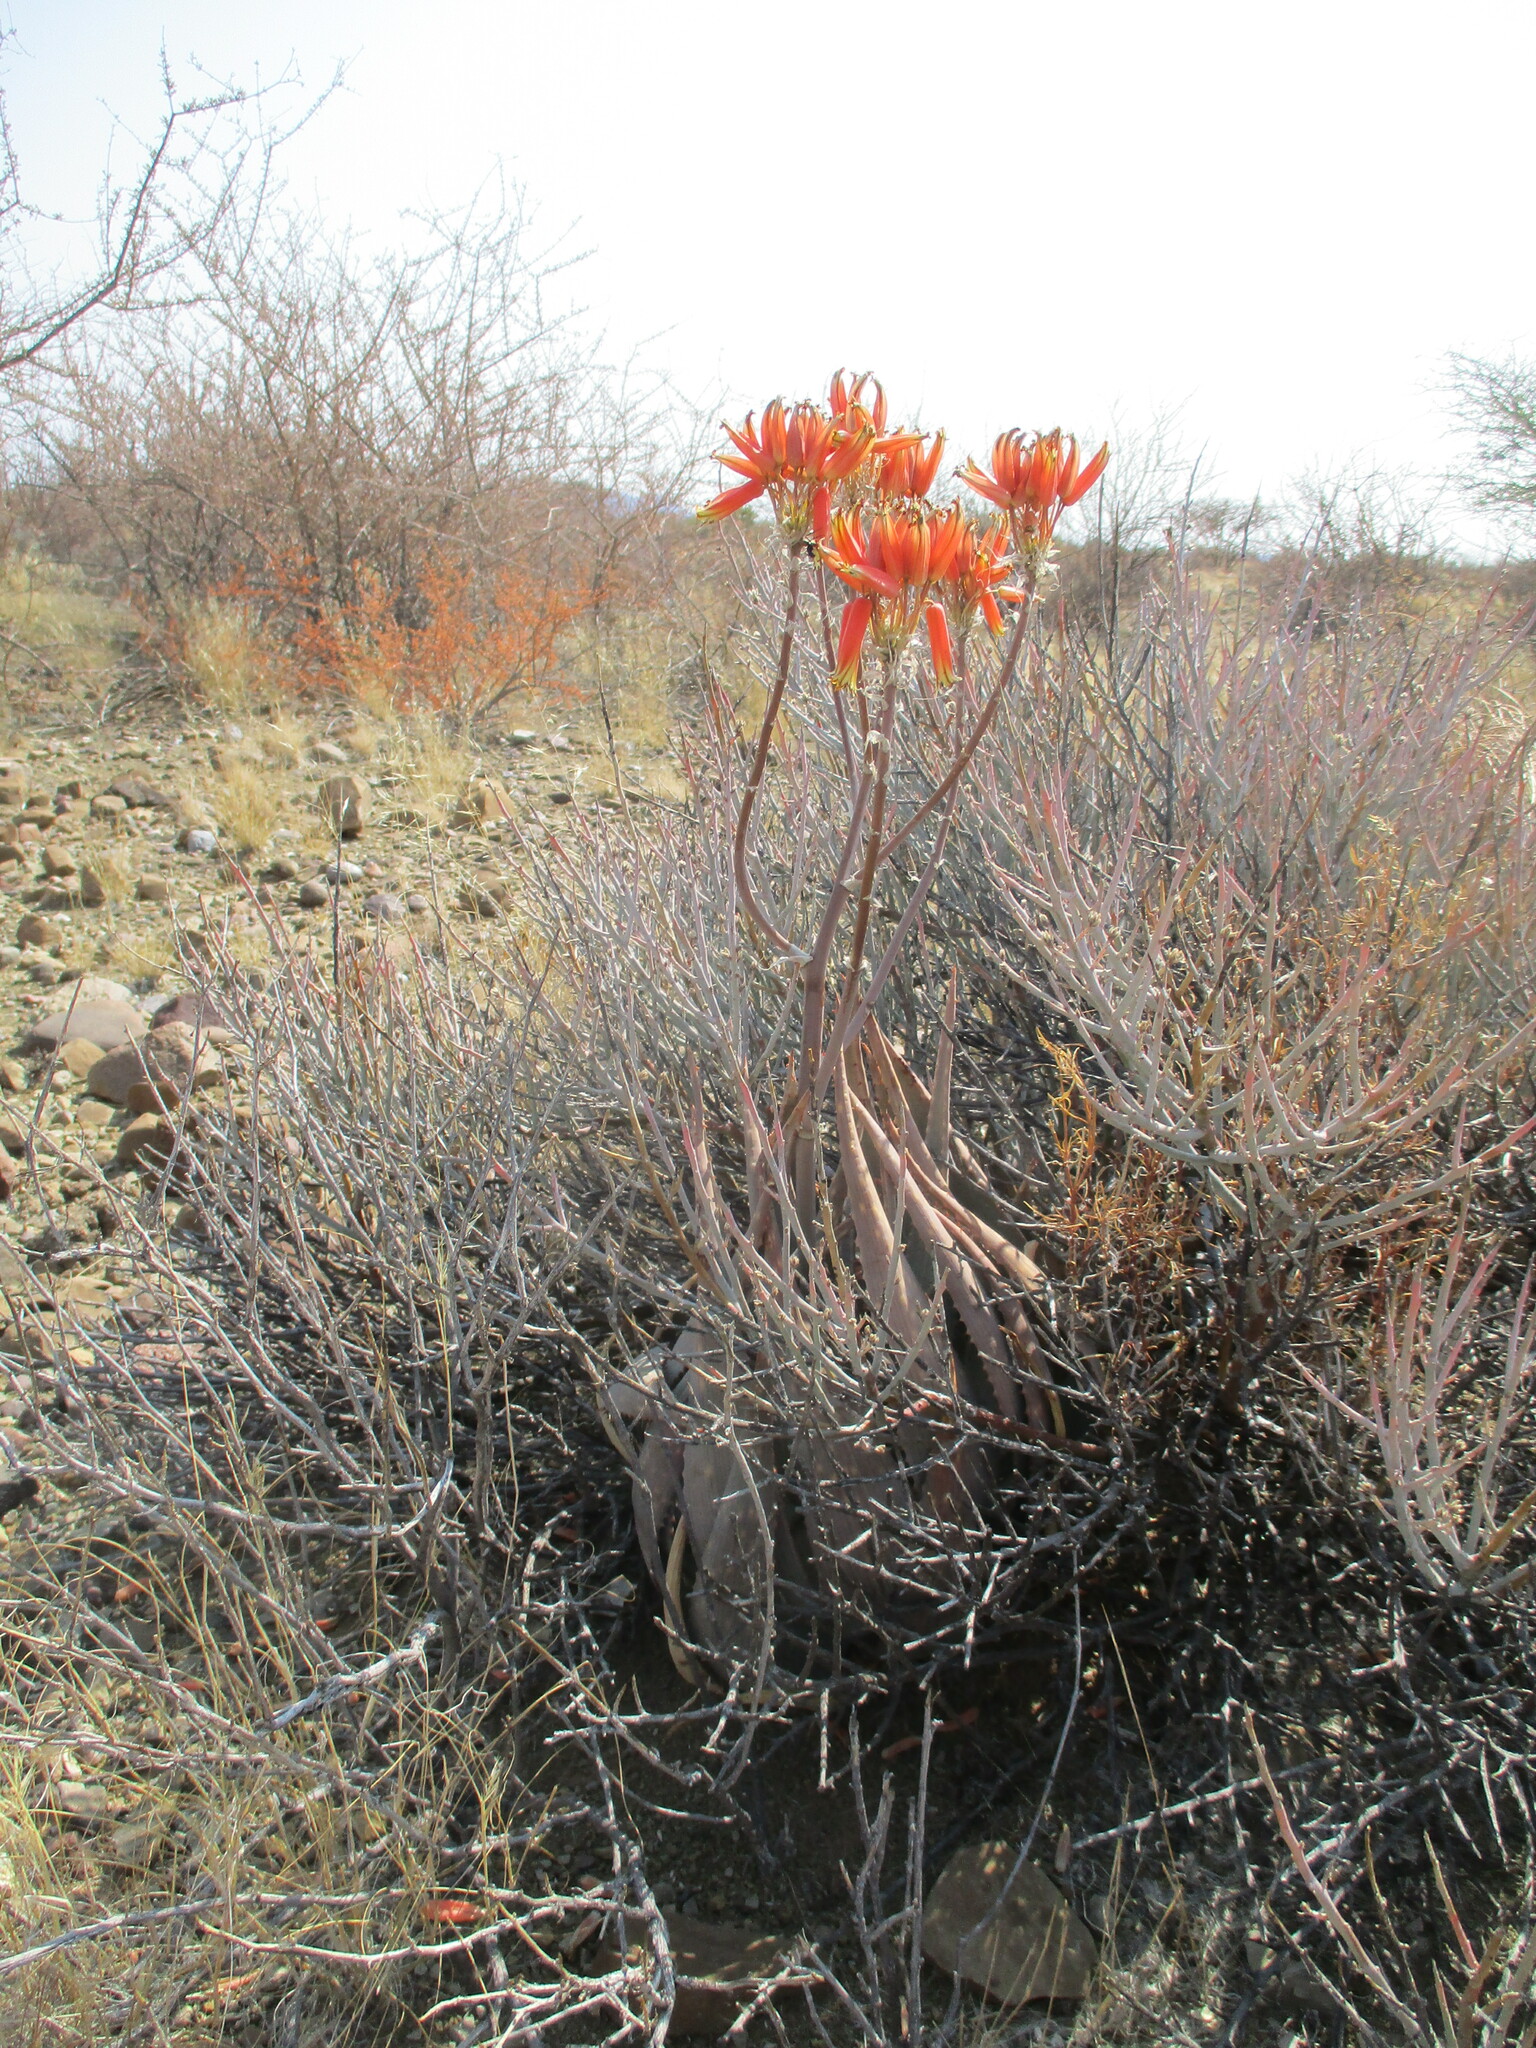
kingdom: Plantae
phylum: Tracheophyta
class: Liliopsida
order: Asparagales
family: Asphodelaceae
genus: Aloe
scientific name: Aloe hereroensis
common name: Herero aloe
